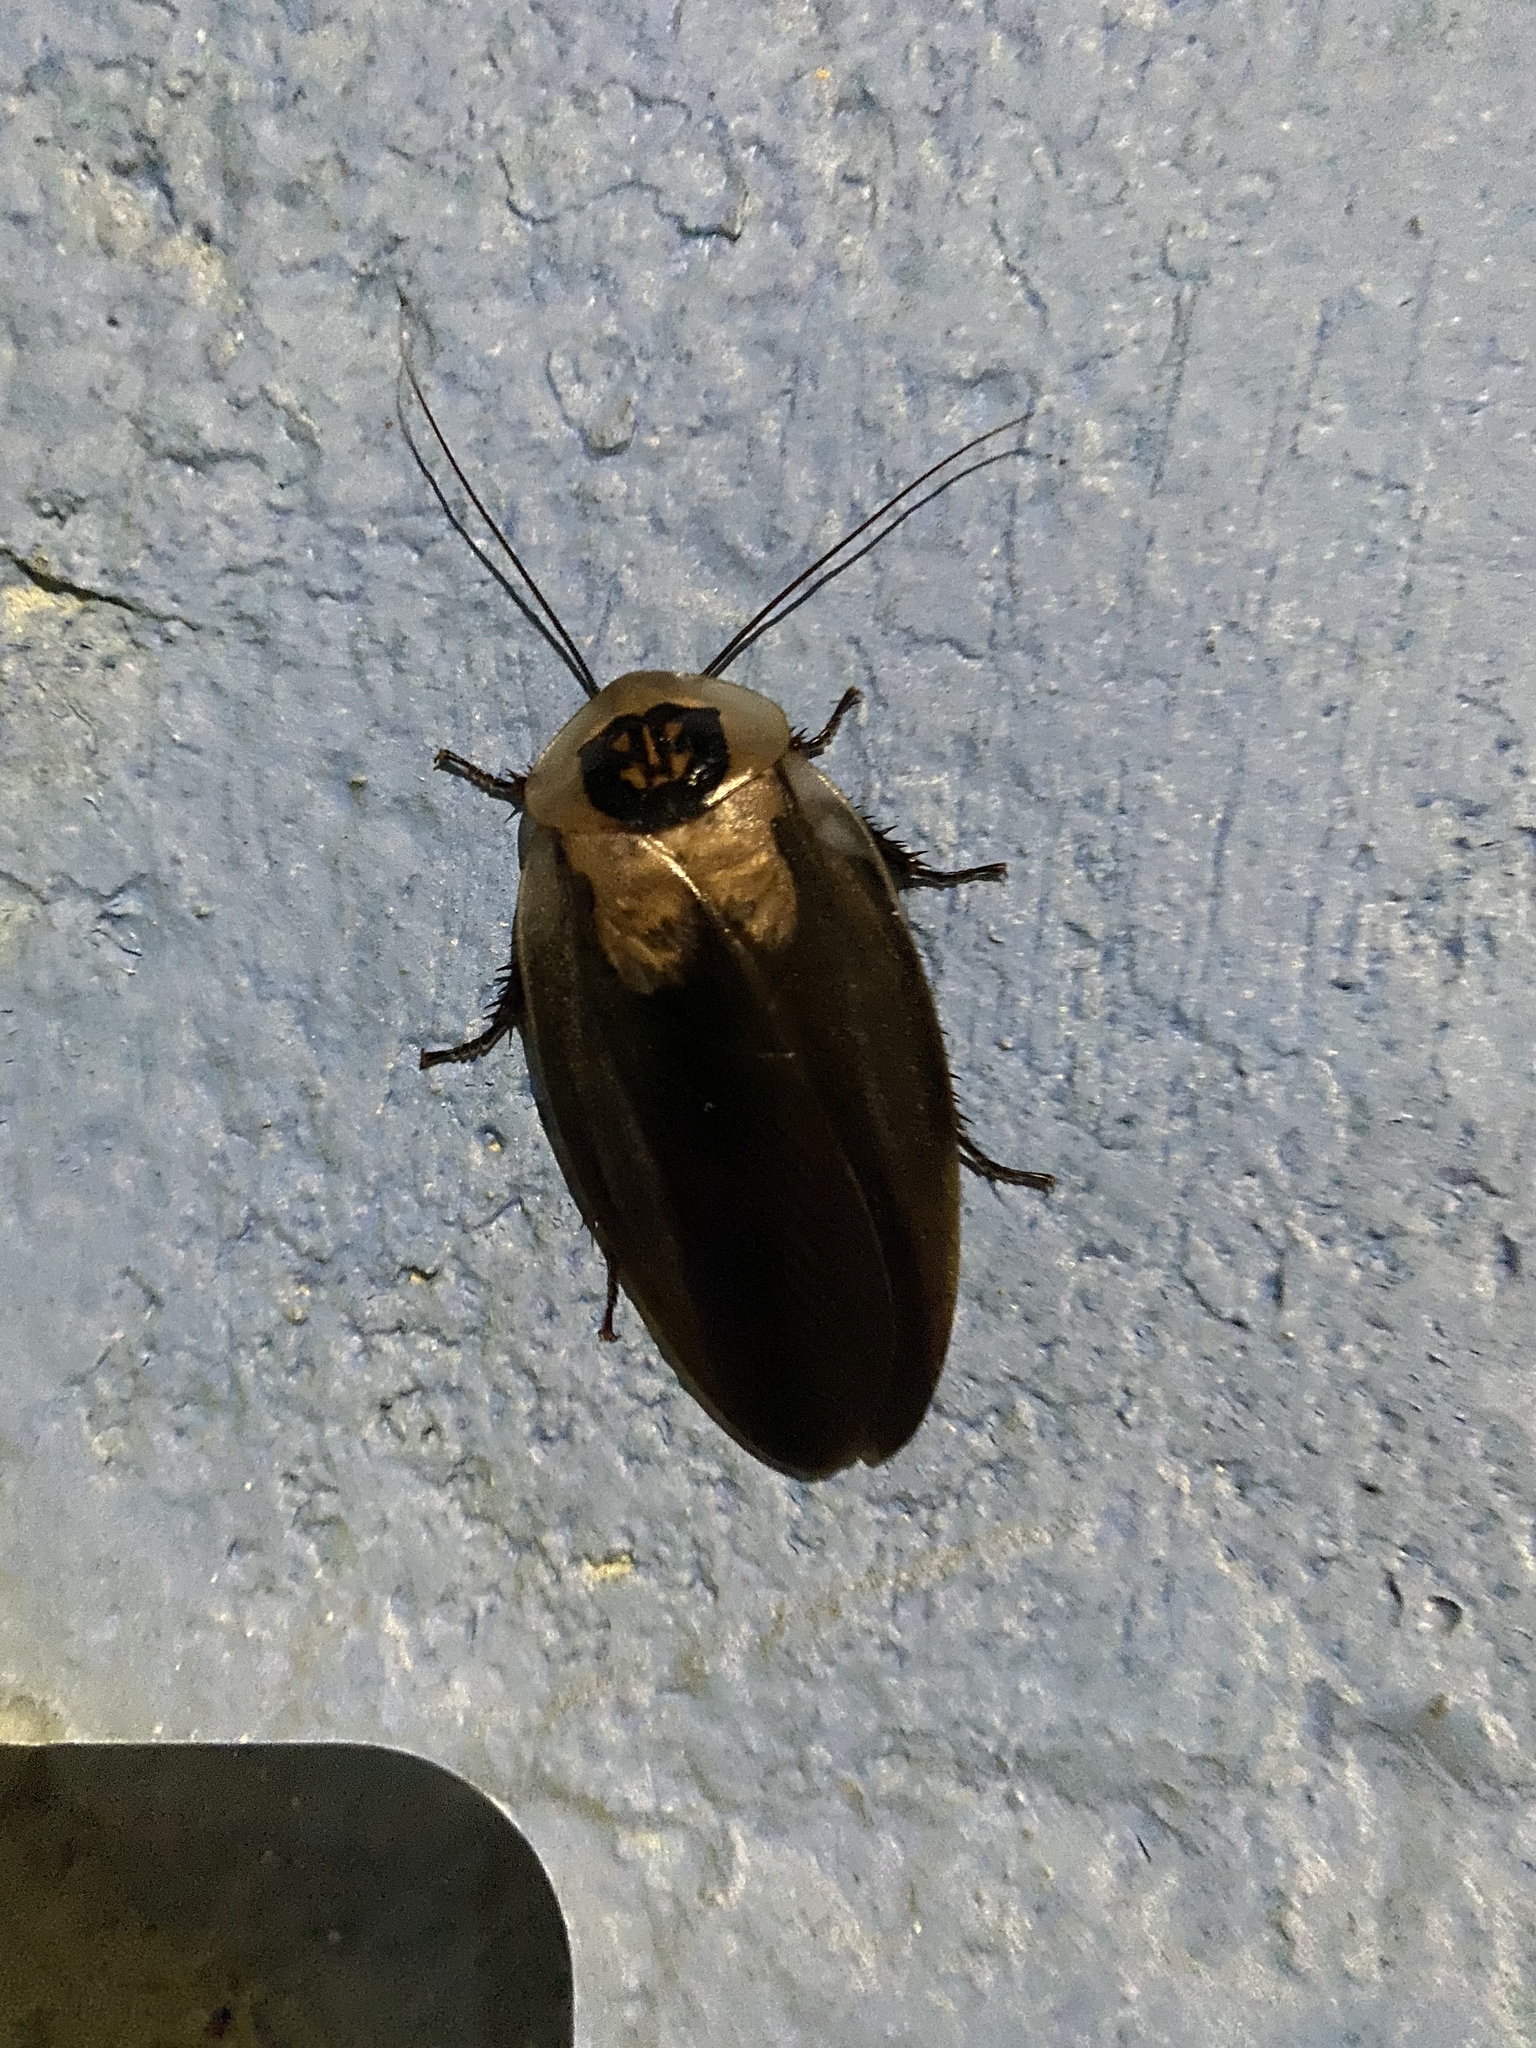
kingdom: Animalia
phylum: Arthropoda
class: Insecta
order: Blattodea
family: Blaberidae
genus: Blaberus
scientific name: Blaberus craniifer
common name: Death's head cockroach
